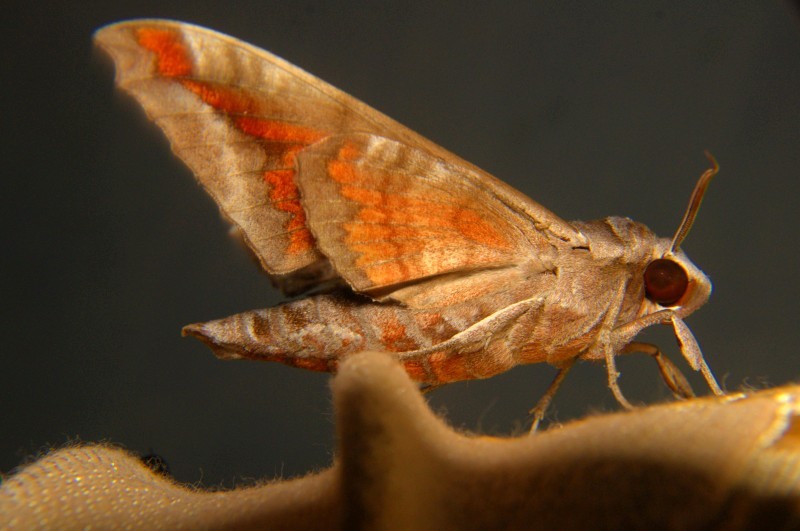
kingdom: Animalia
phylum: Arthropoda
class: Insecta
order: Lepidoptera
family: Sphingidae
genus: Acosmeryx
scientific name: Acosmeryx naga
